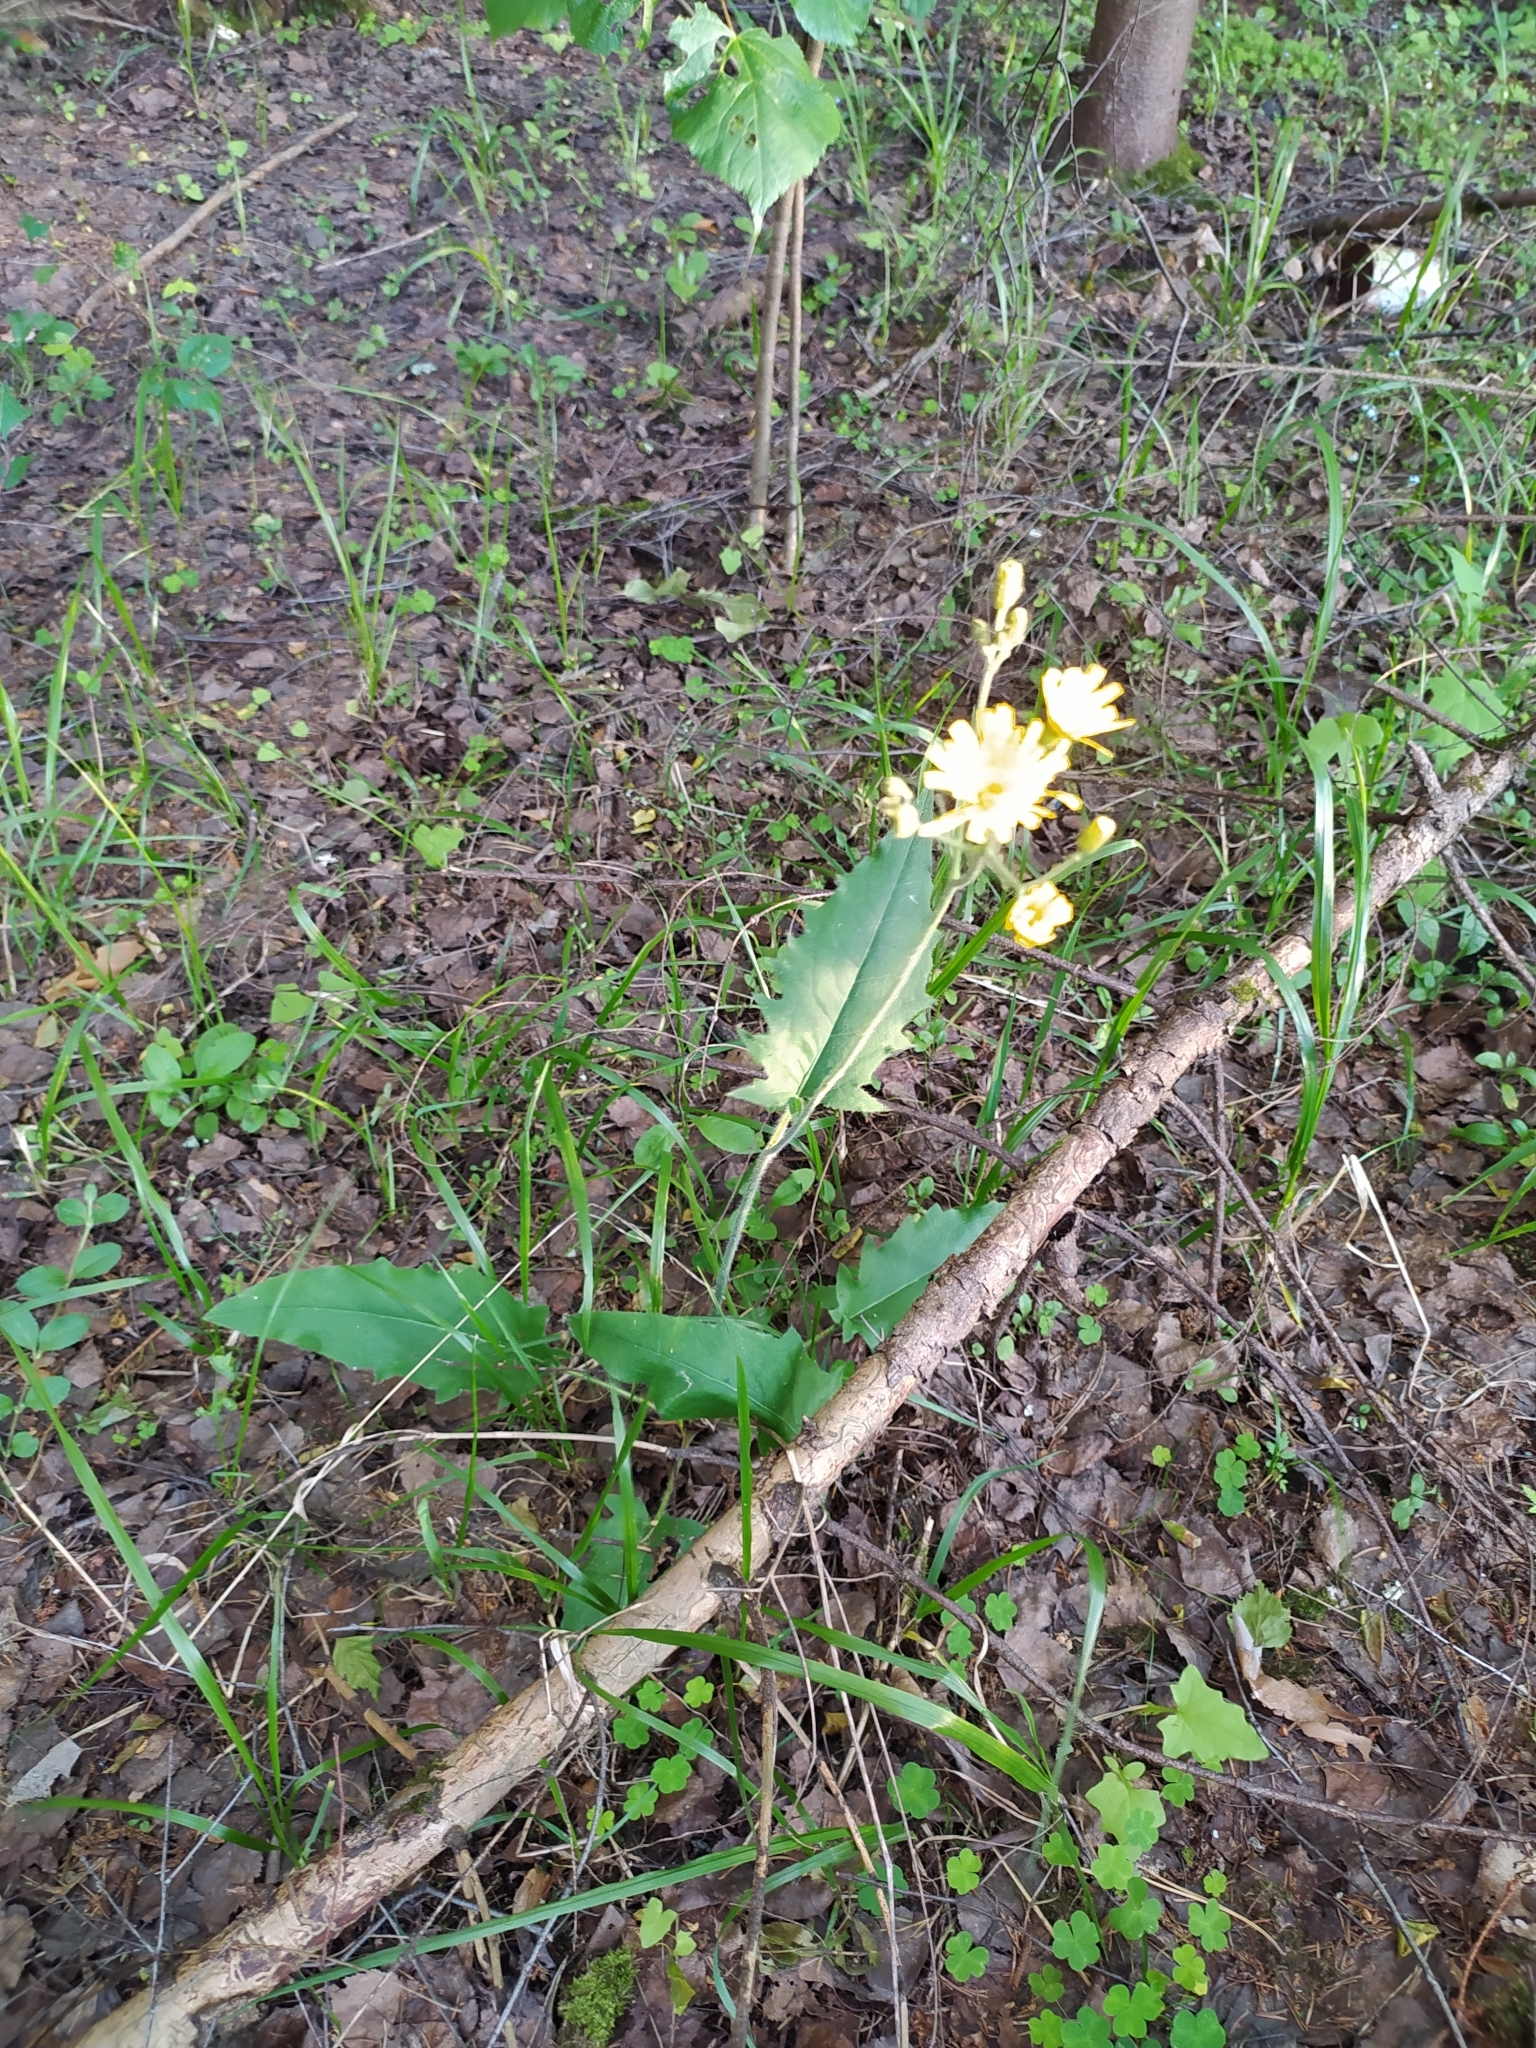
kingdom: Plantae
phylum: Tracheophyta
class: Magnoliopsida
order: Asterales
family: Asteraceae
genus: Hieracium
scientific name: Hieracium murorum
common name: Wall hawkweed
